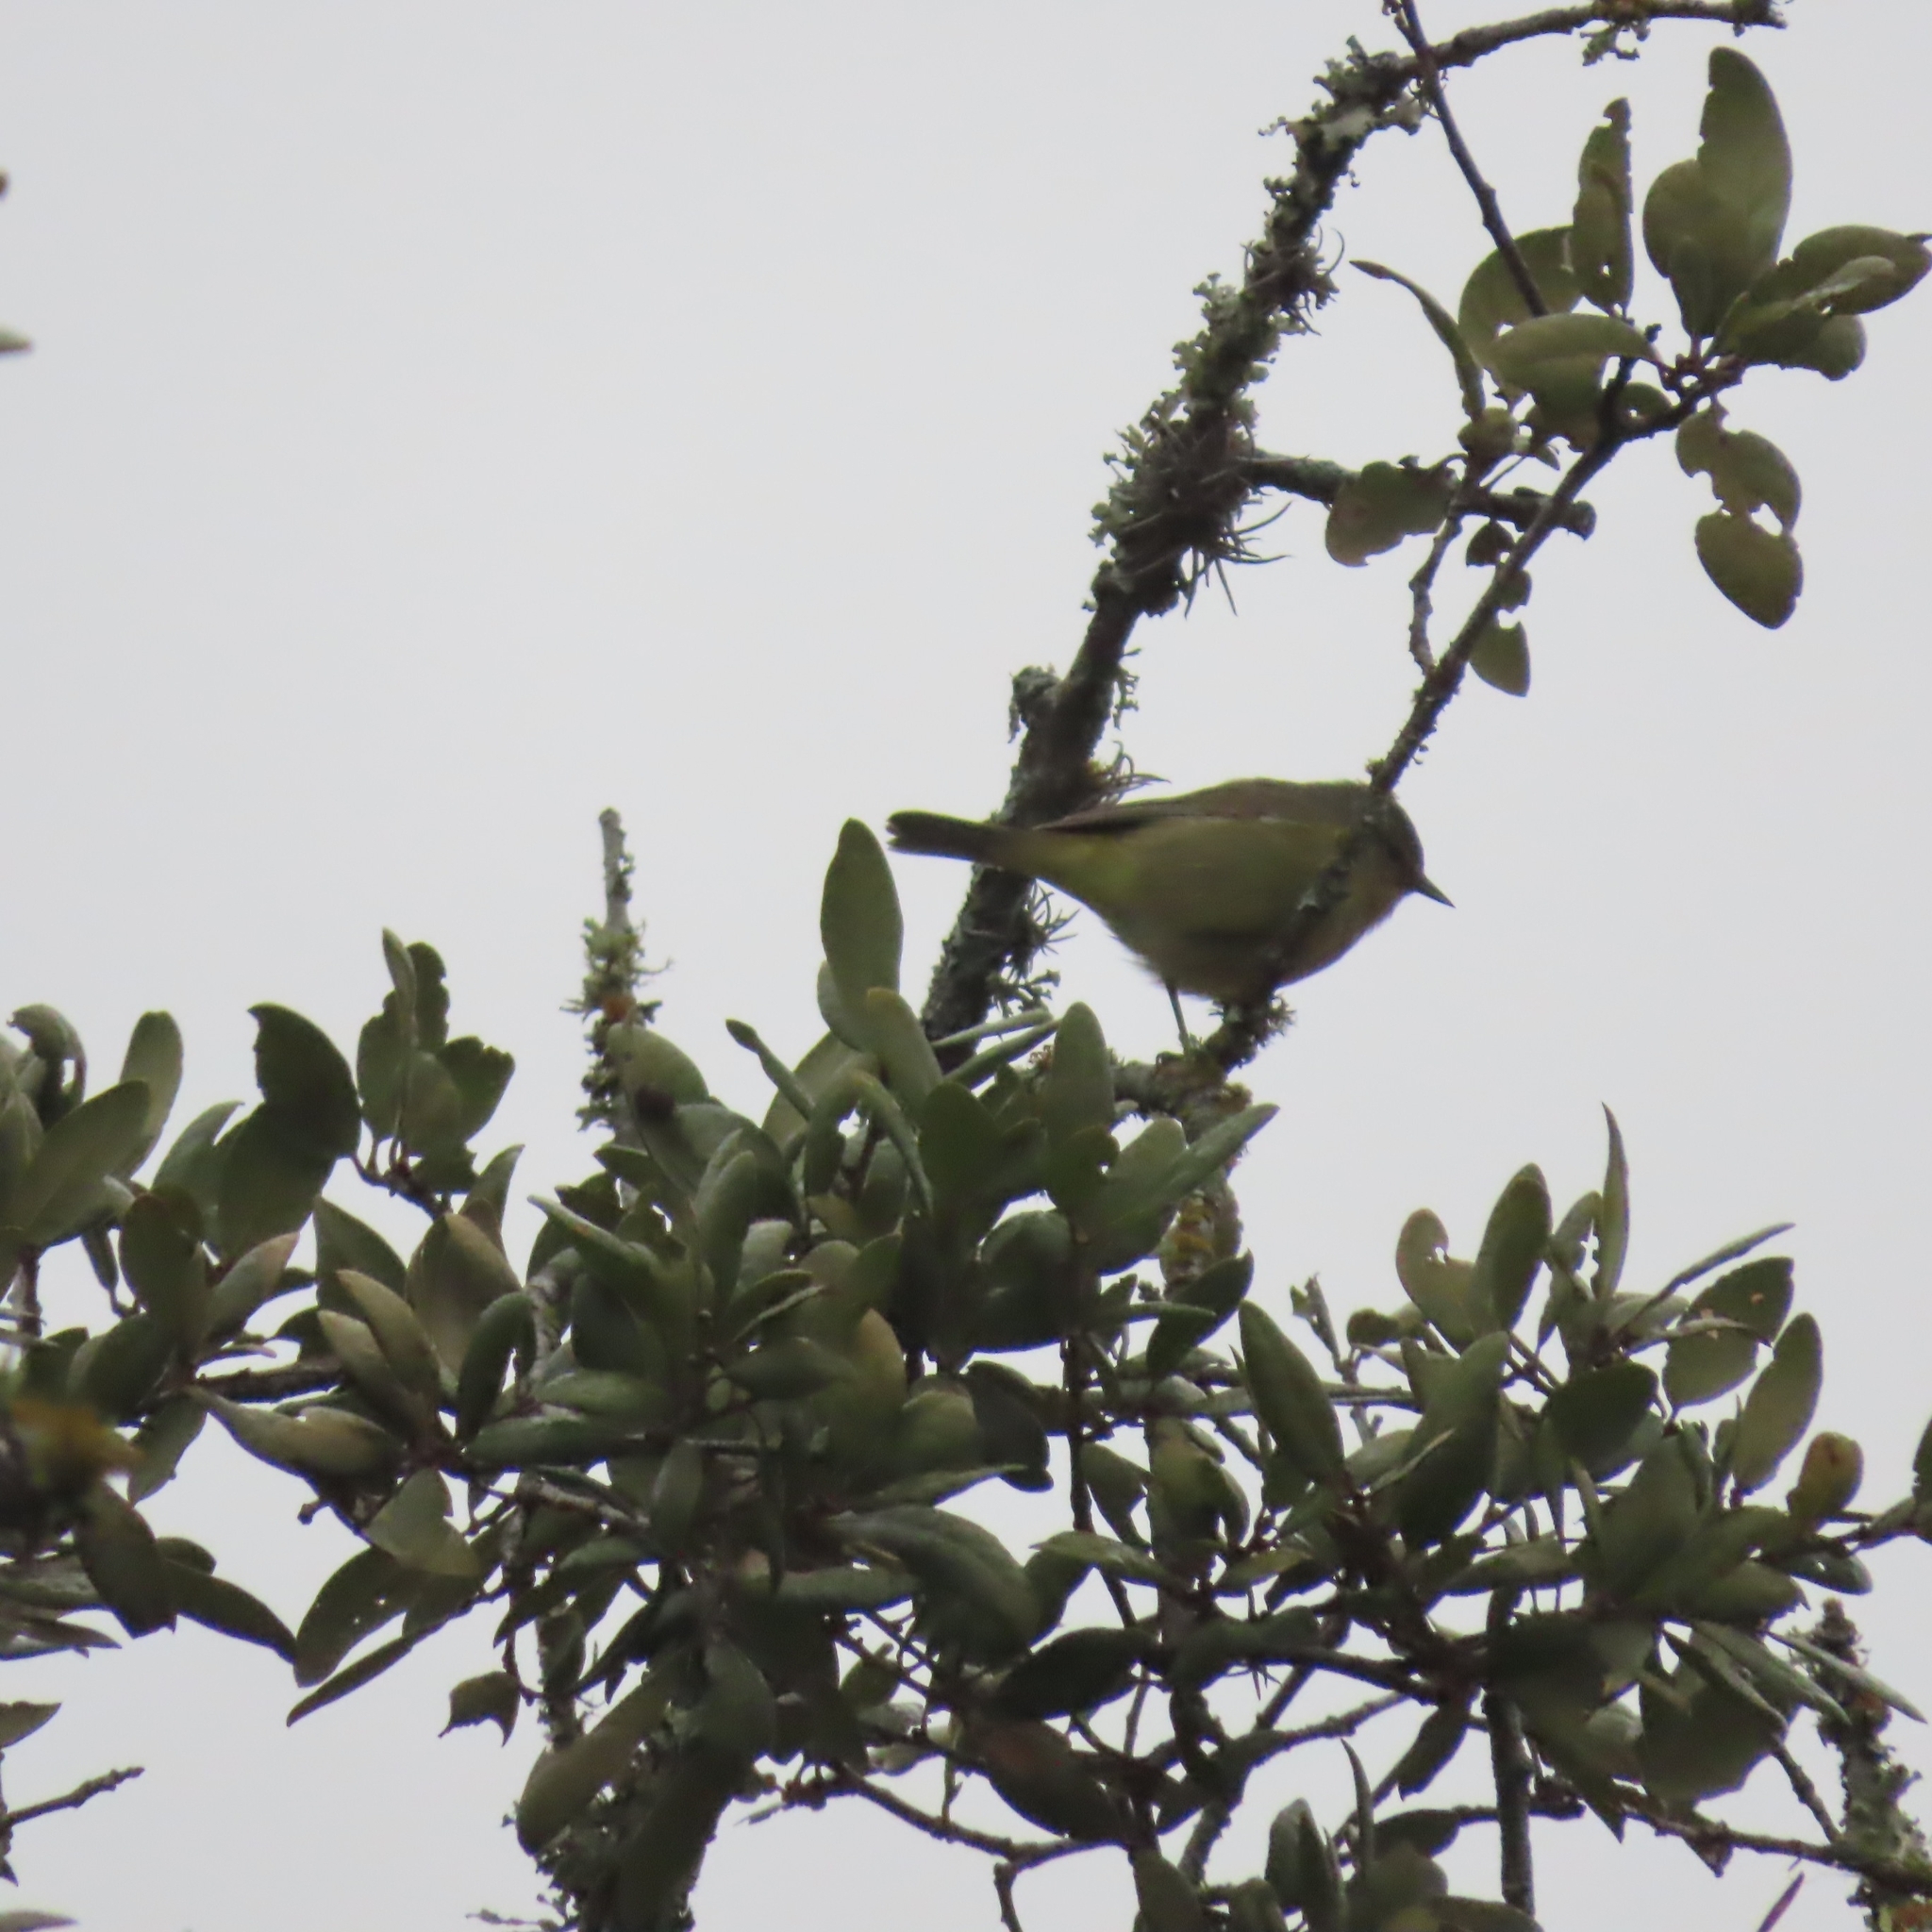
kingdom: Animalia
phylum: Chordata
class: Aves
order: Passeriformes
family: Parulidae
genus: Leiothlypis
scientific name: Leiothlypis celata
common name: Orange-crowned warbler
